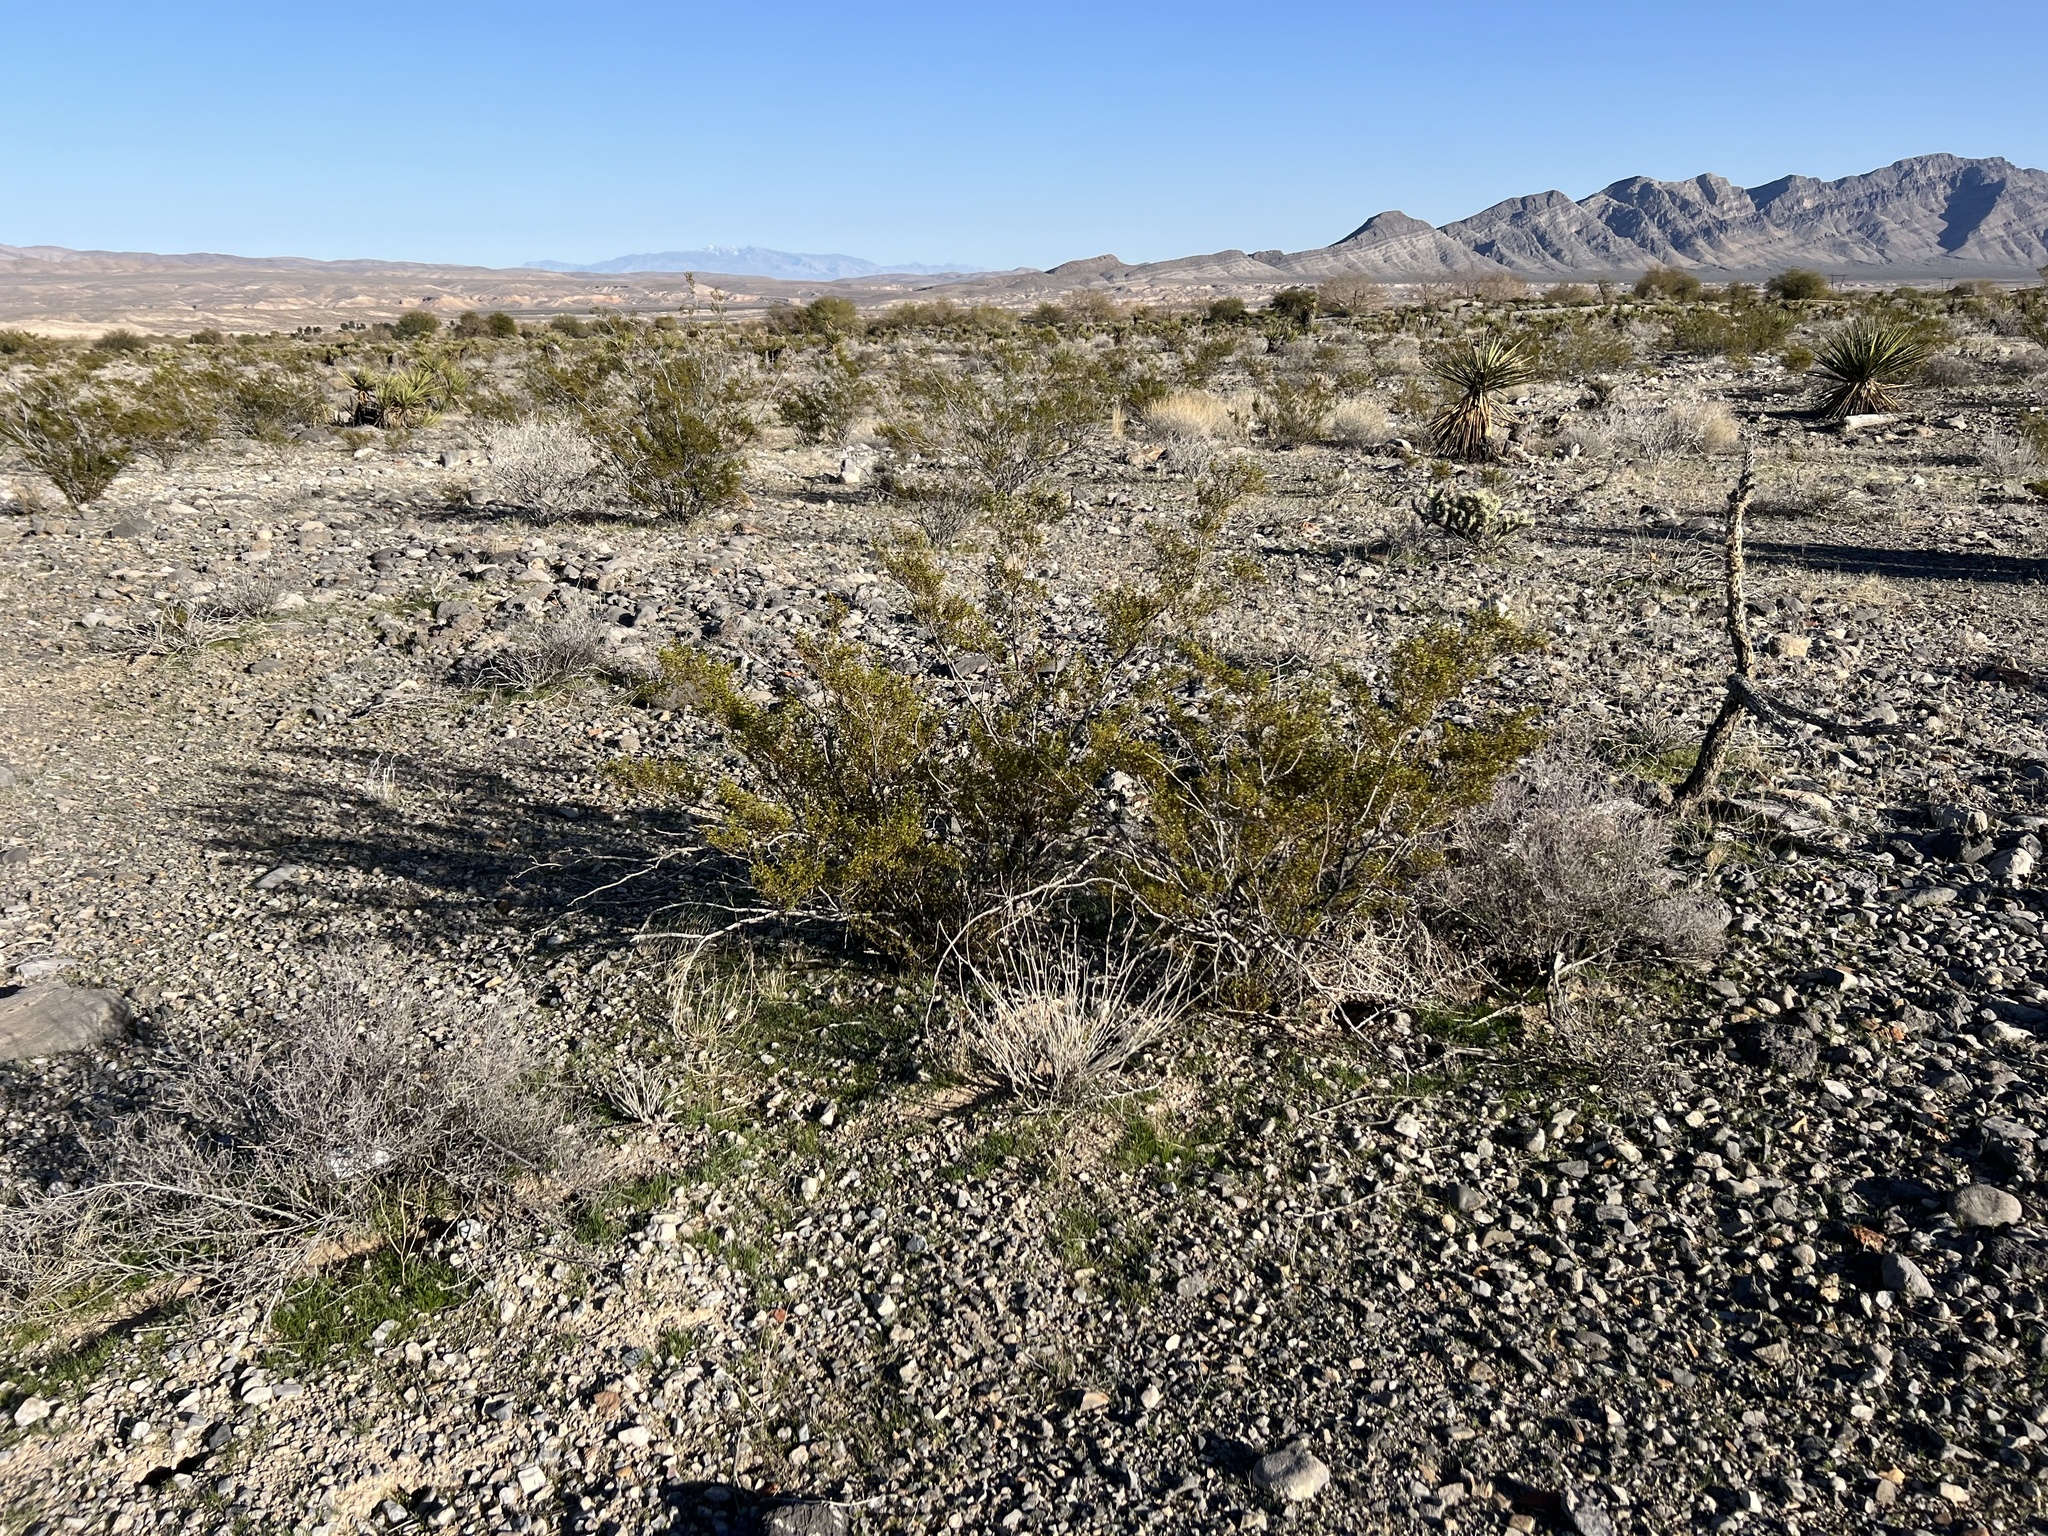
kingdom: Plantae
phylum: Tracheophyta
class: Magnoliopsida
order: Zygophyllales
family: Zygophyllaceae
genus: Larrea
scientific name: Larrea tridentata
